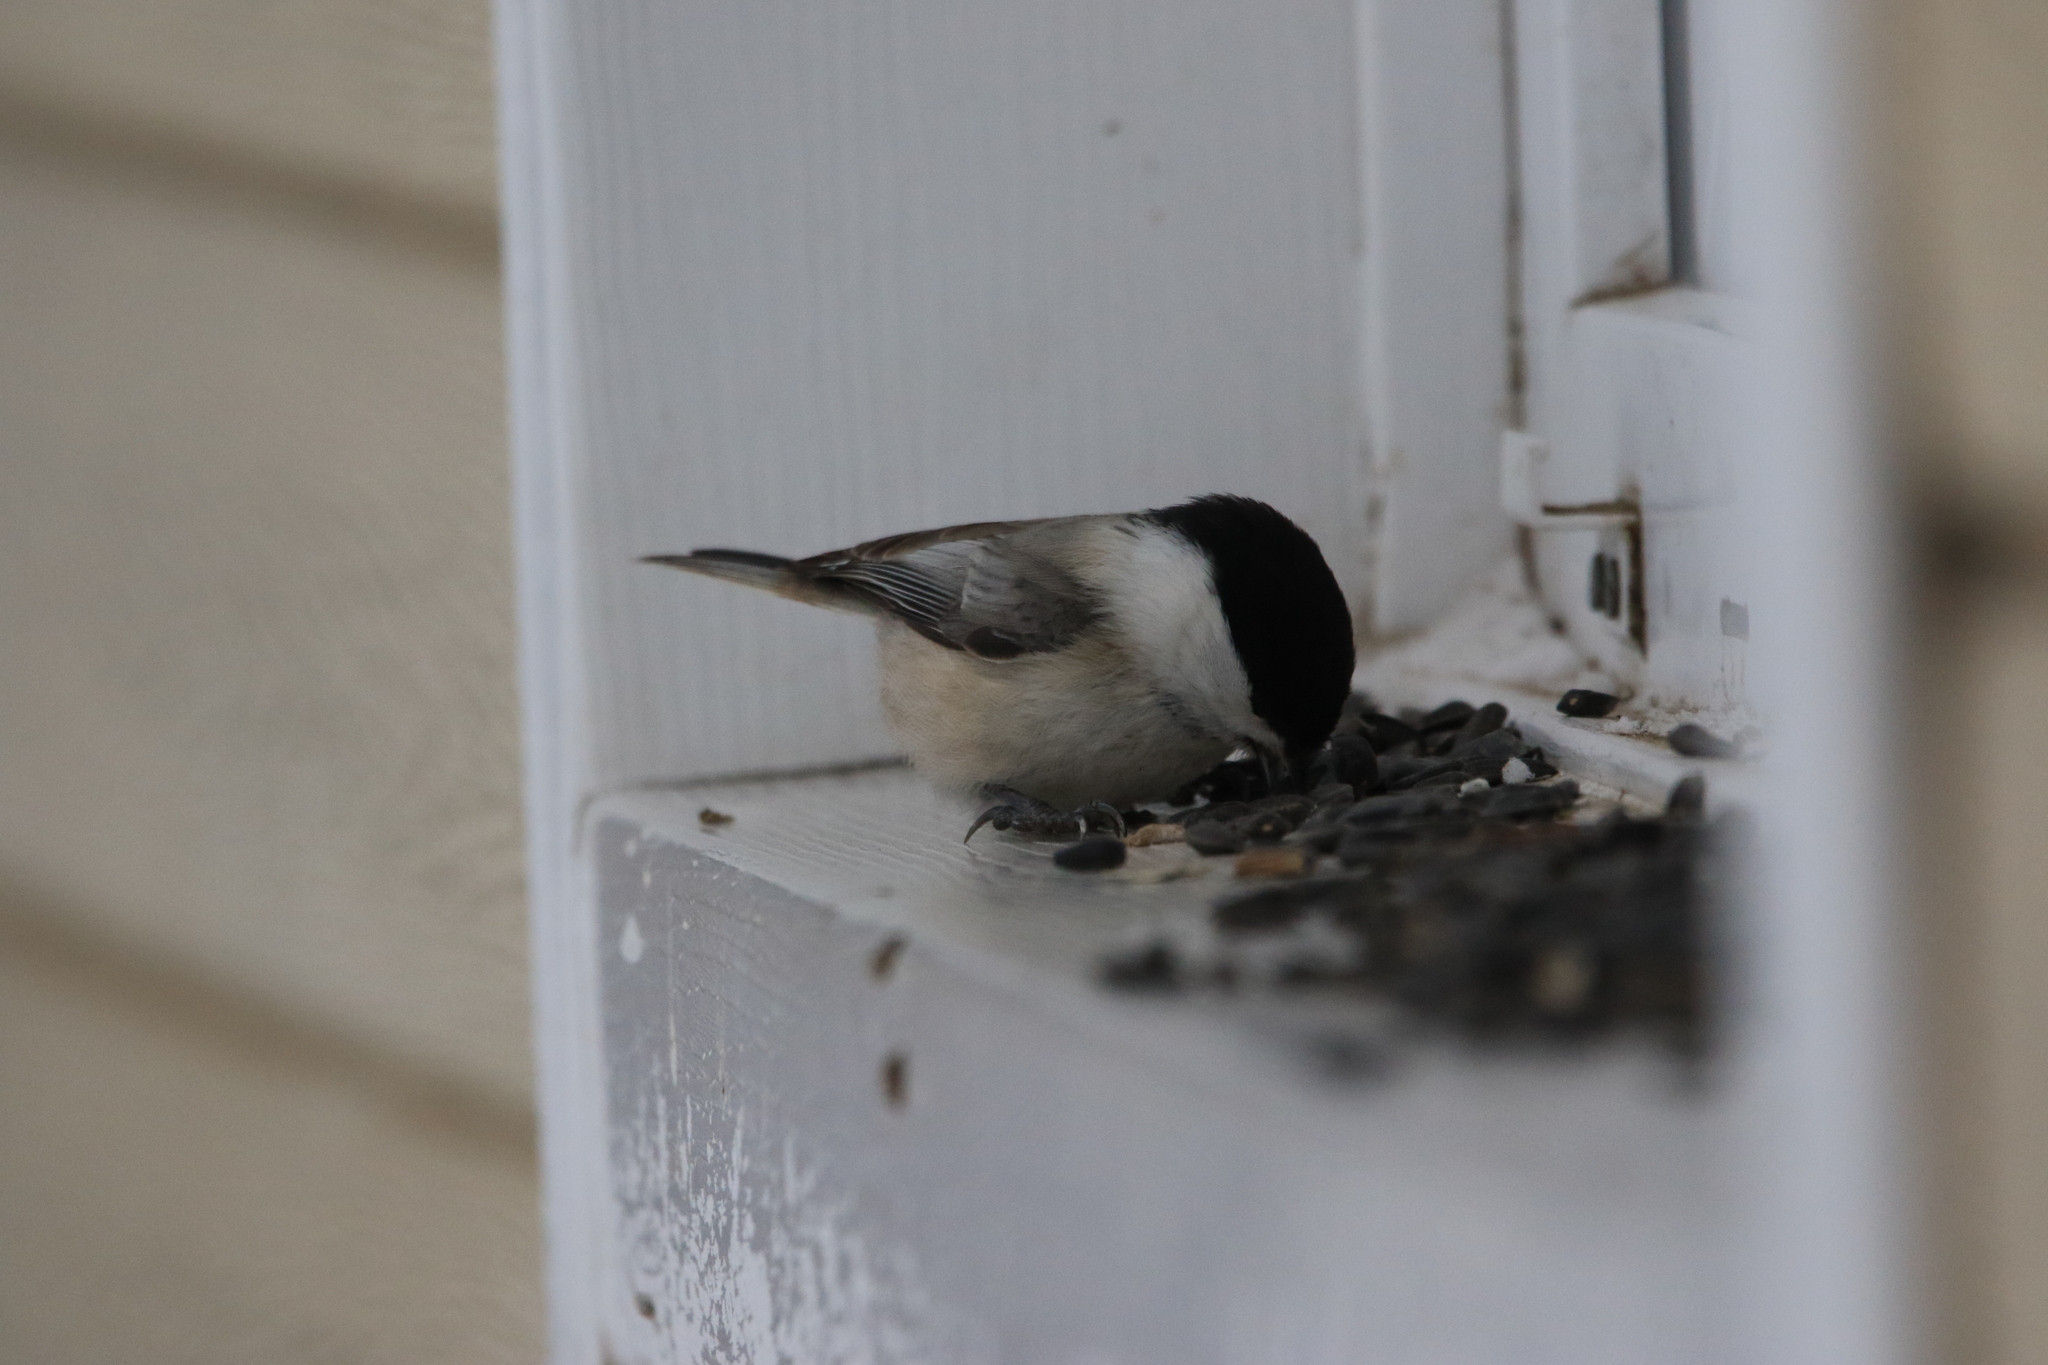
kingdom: Animalia
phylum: Chordata
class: Aves
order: Passeriformes
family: Paridae
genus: Poecile
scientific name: Poecile montanus
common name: Willow tit
